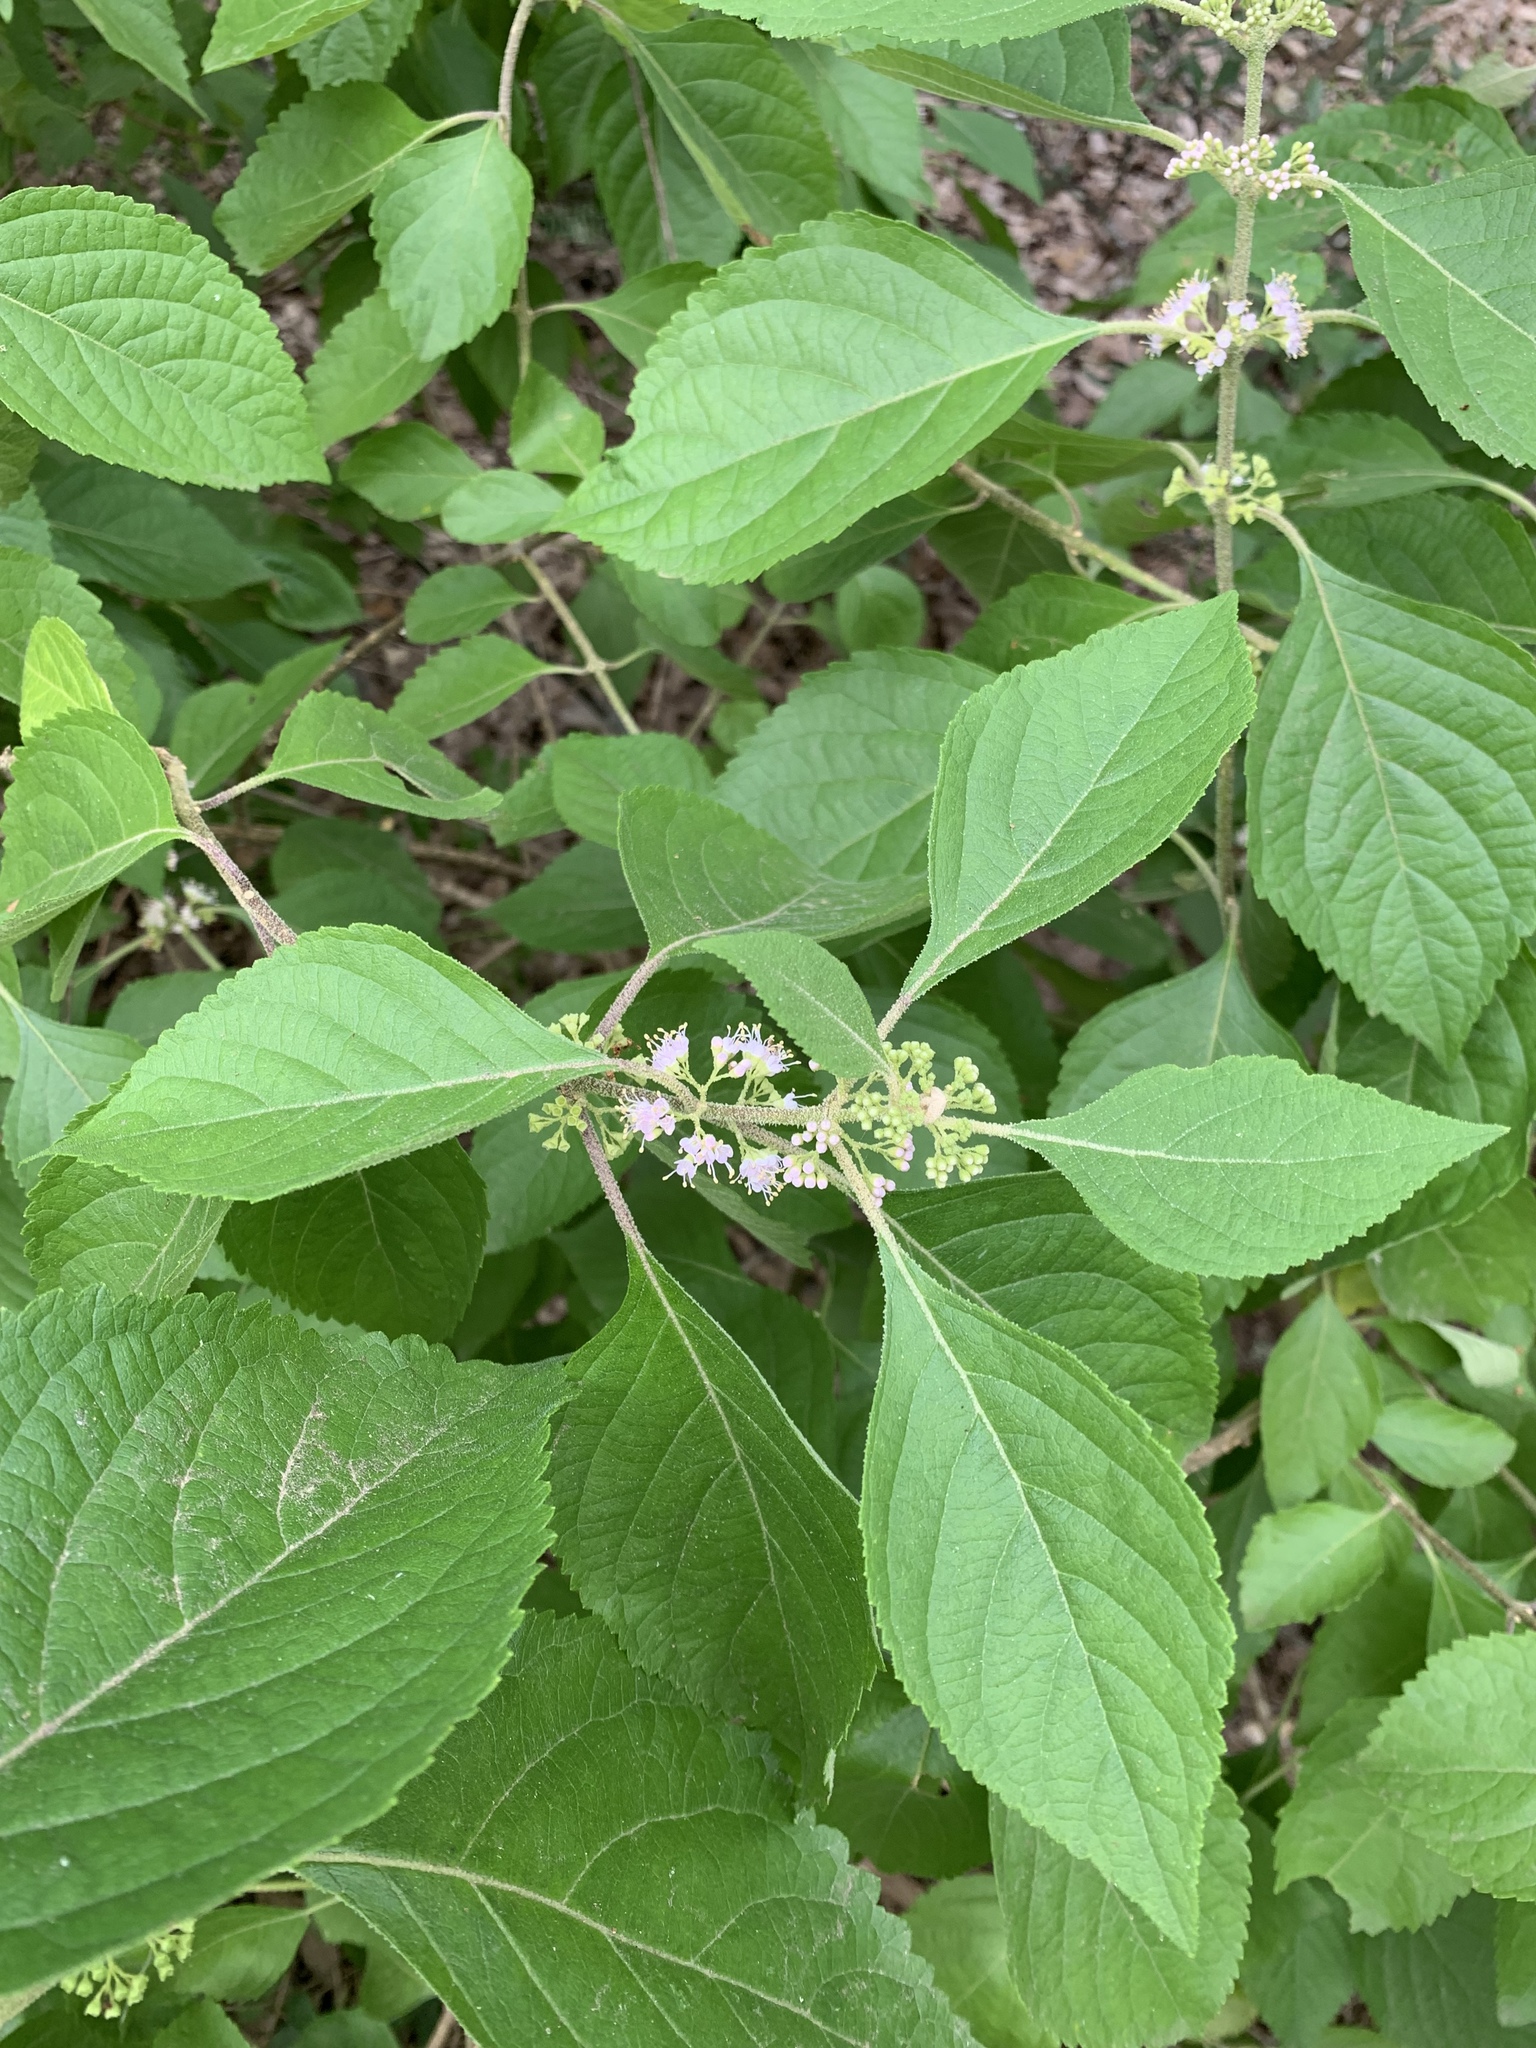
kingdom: Plantae
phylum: Tracheophyta
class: Magnoliopsida
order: Lamiales
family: Lamiaceae
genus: Callicarpa
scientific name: Callicarpa americana
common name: American beautyberry
